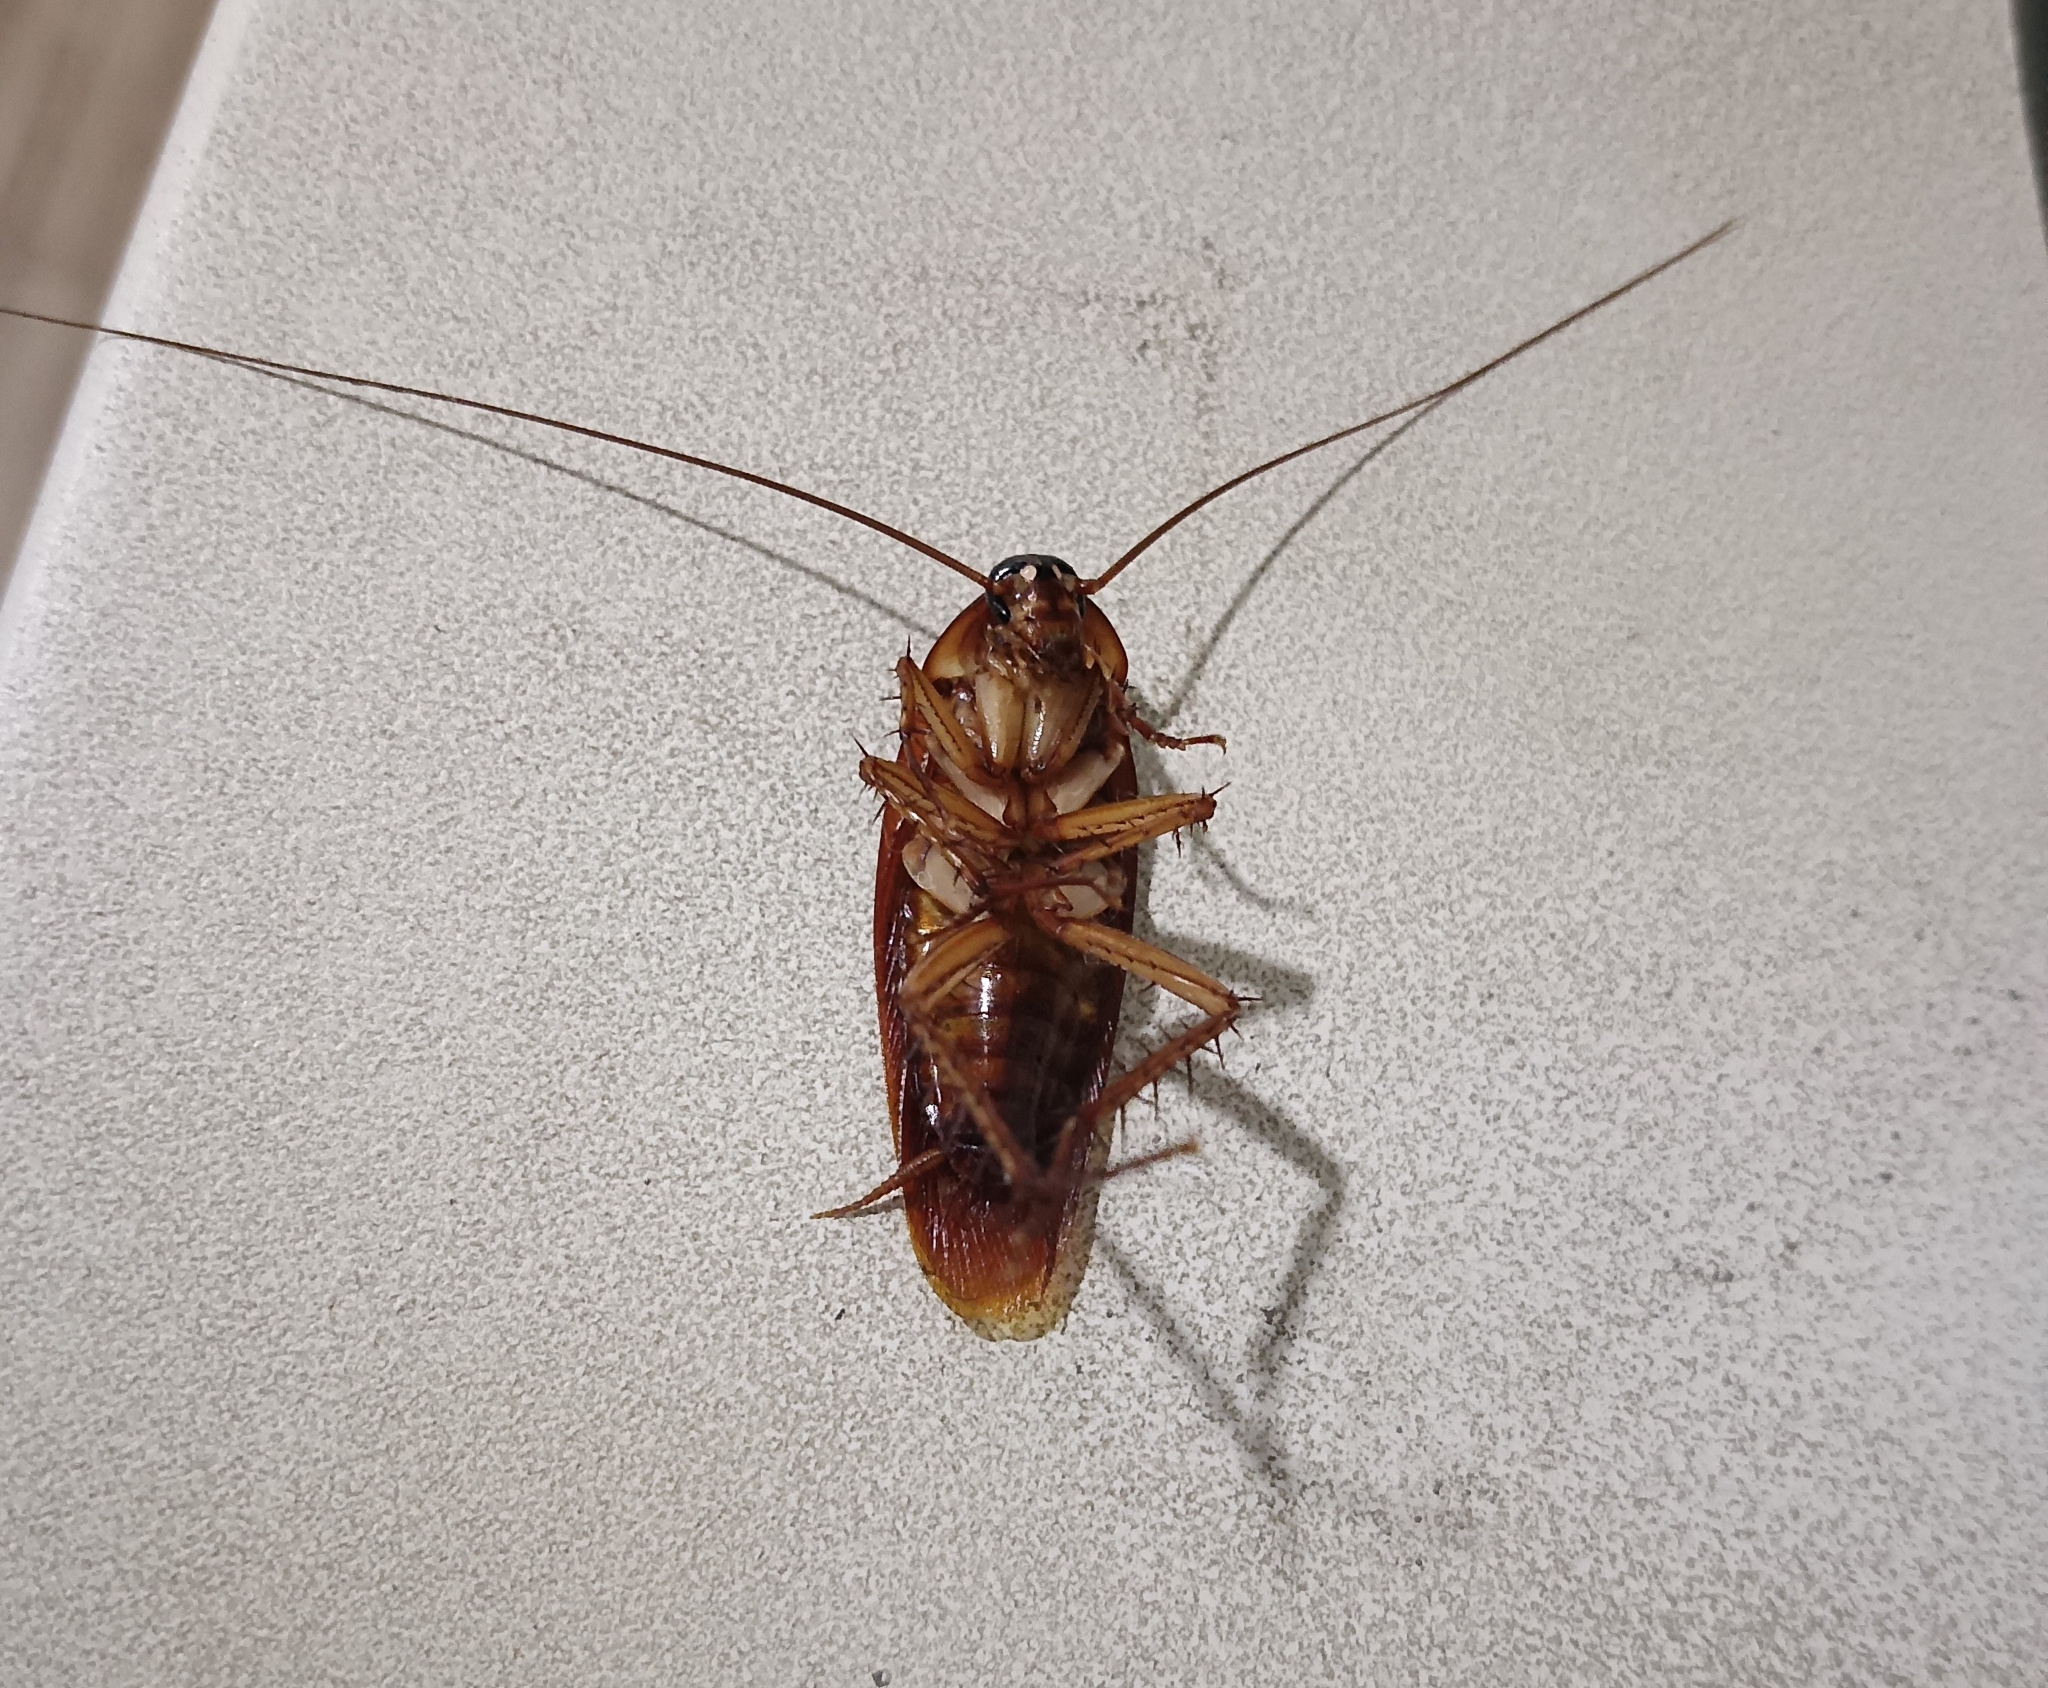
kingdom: Animalia
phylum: Arthropoda
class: Insecta
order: Blattodea
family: Blattidae
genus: Periplaneta
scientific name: Periplaneta americana
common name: American cockroach
